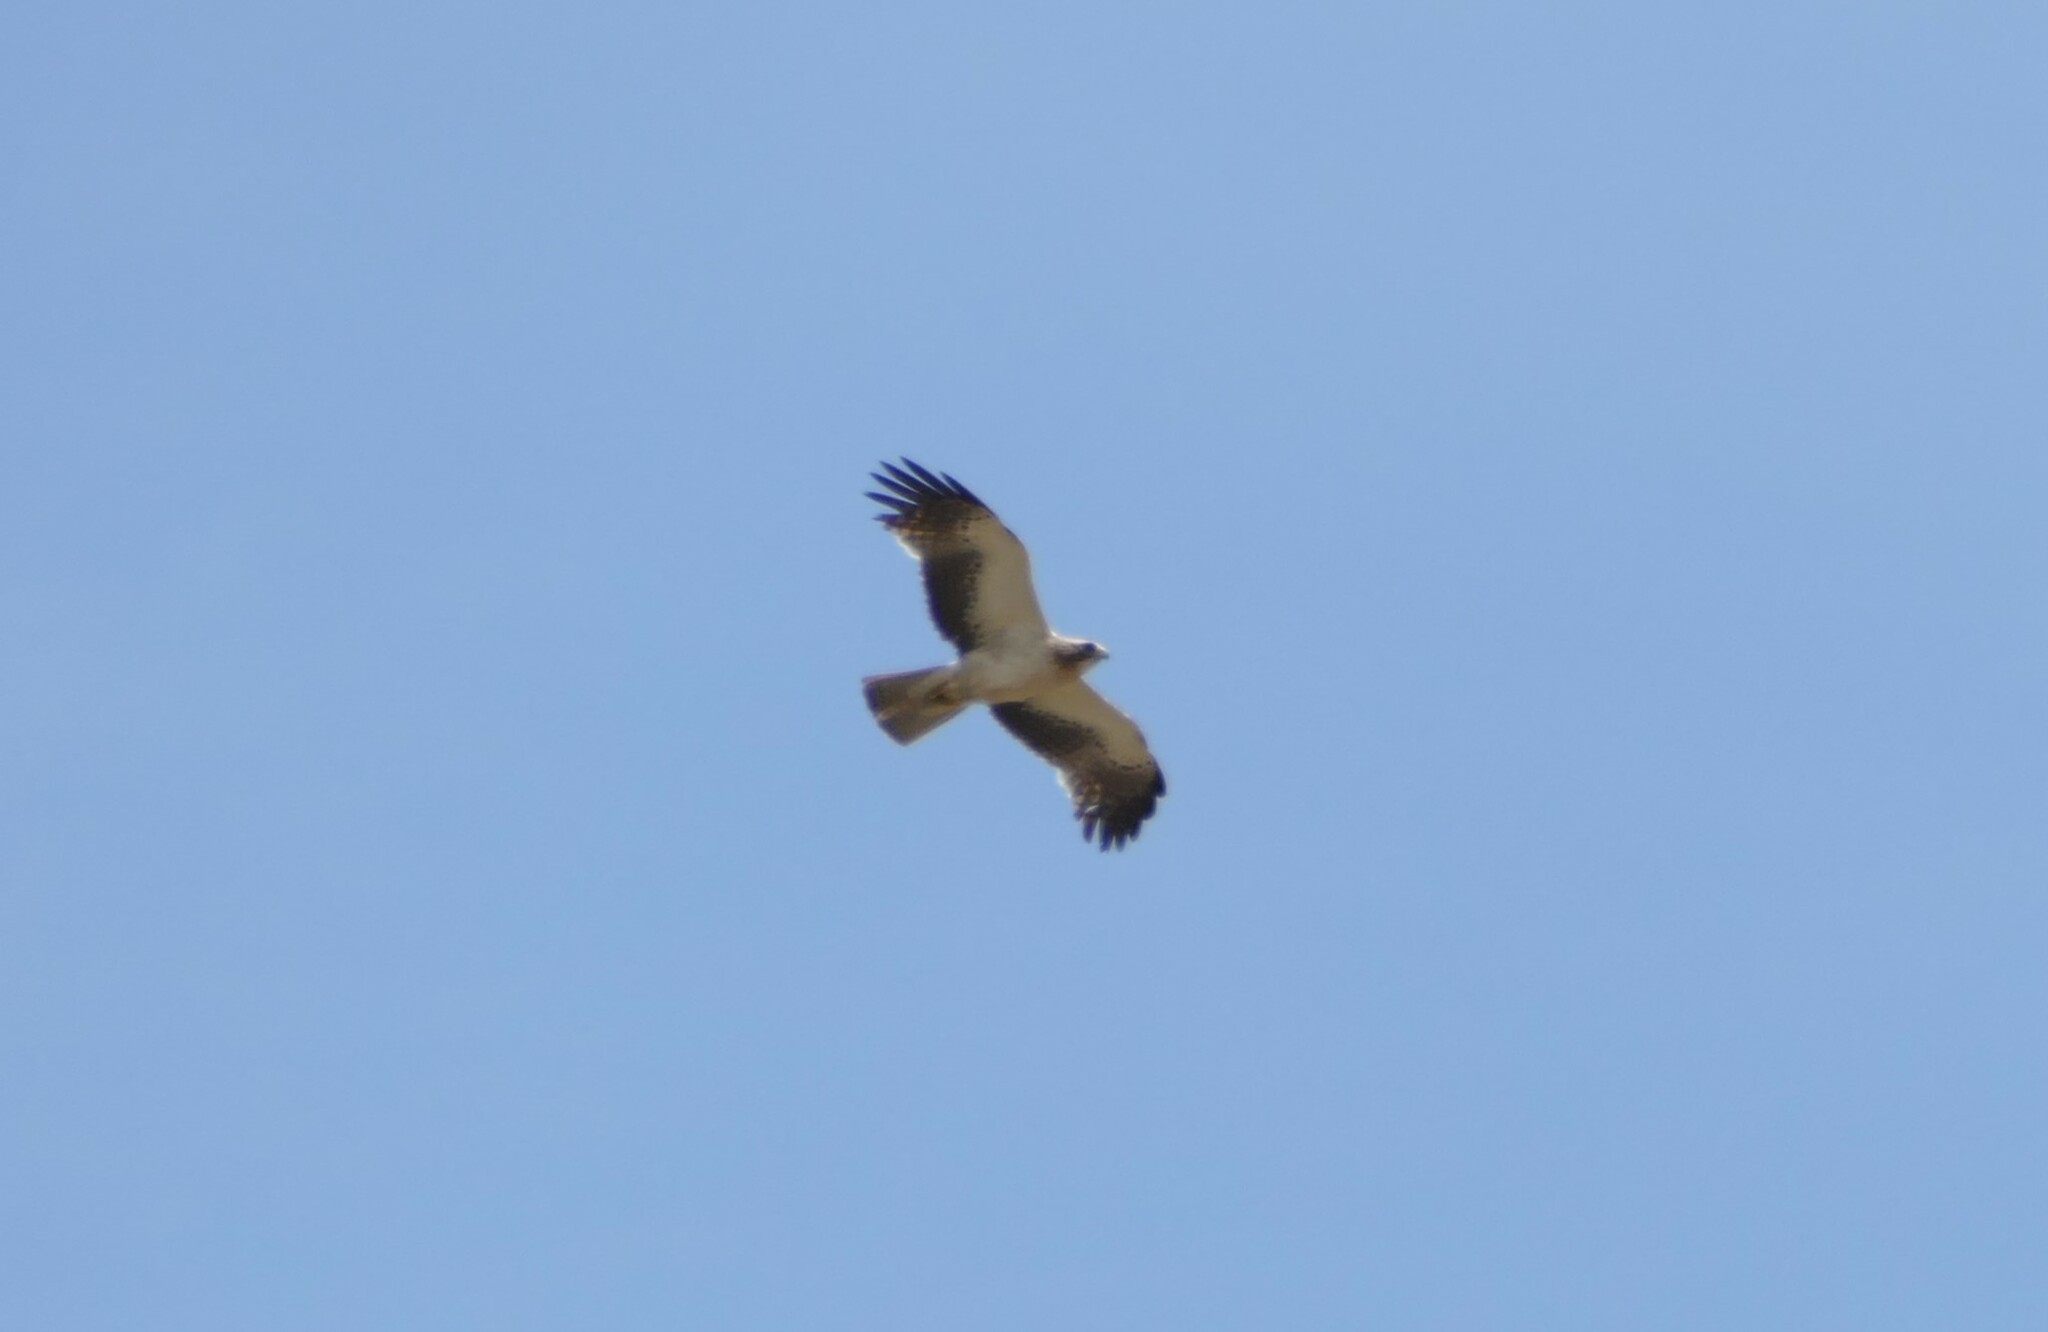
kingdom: Animalia
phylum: Chordata
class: Aves
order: Accipitriformes
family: Accipitridae
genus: Hieraaetus
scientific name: Hieraaetus pennatus
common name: Booted eagle
